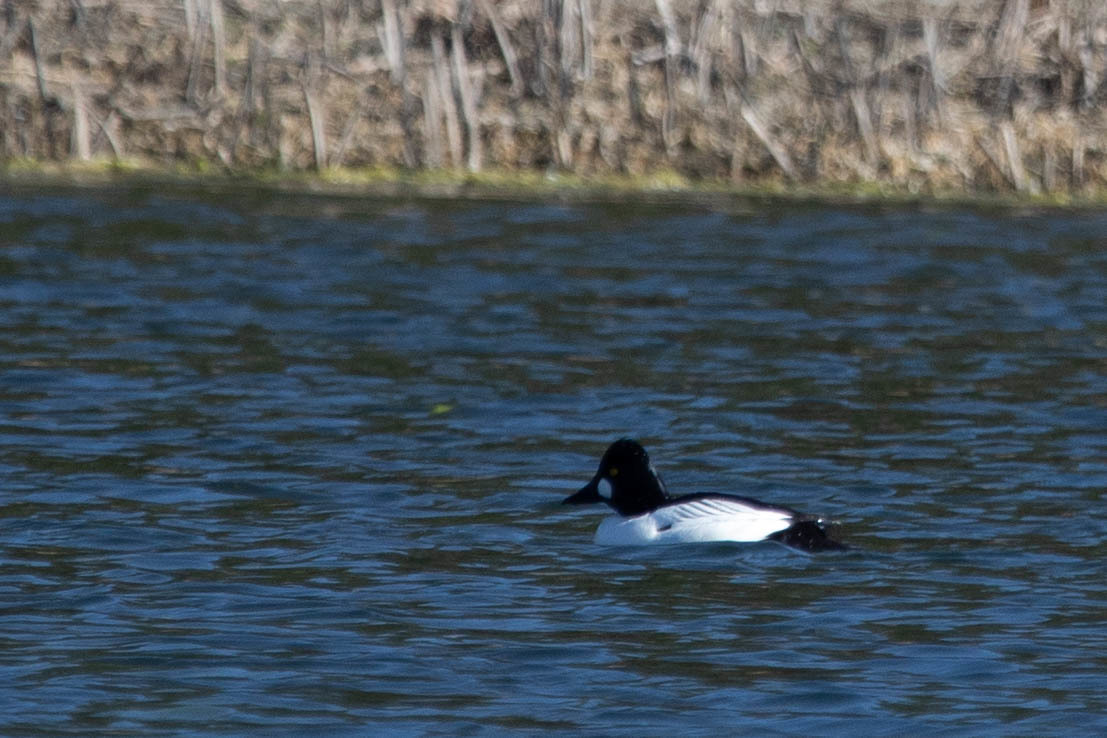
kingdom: Animalia
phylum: Chordata
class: Aves
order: Anseriformes
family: Anatidae
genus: Bucephala
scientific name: Bucephala clangula
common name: Common goldeneye
